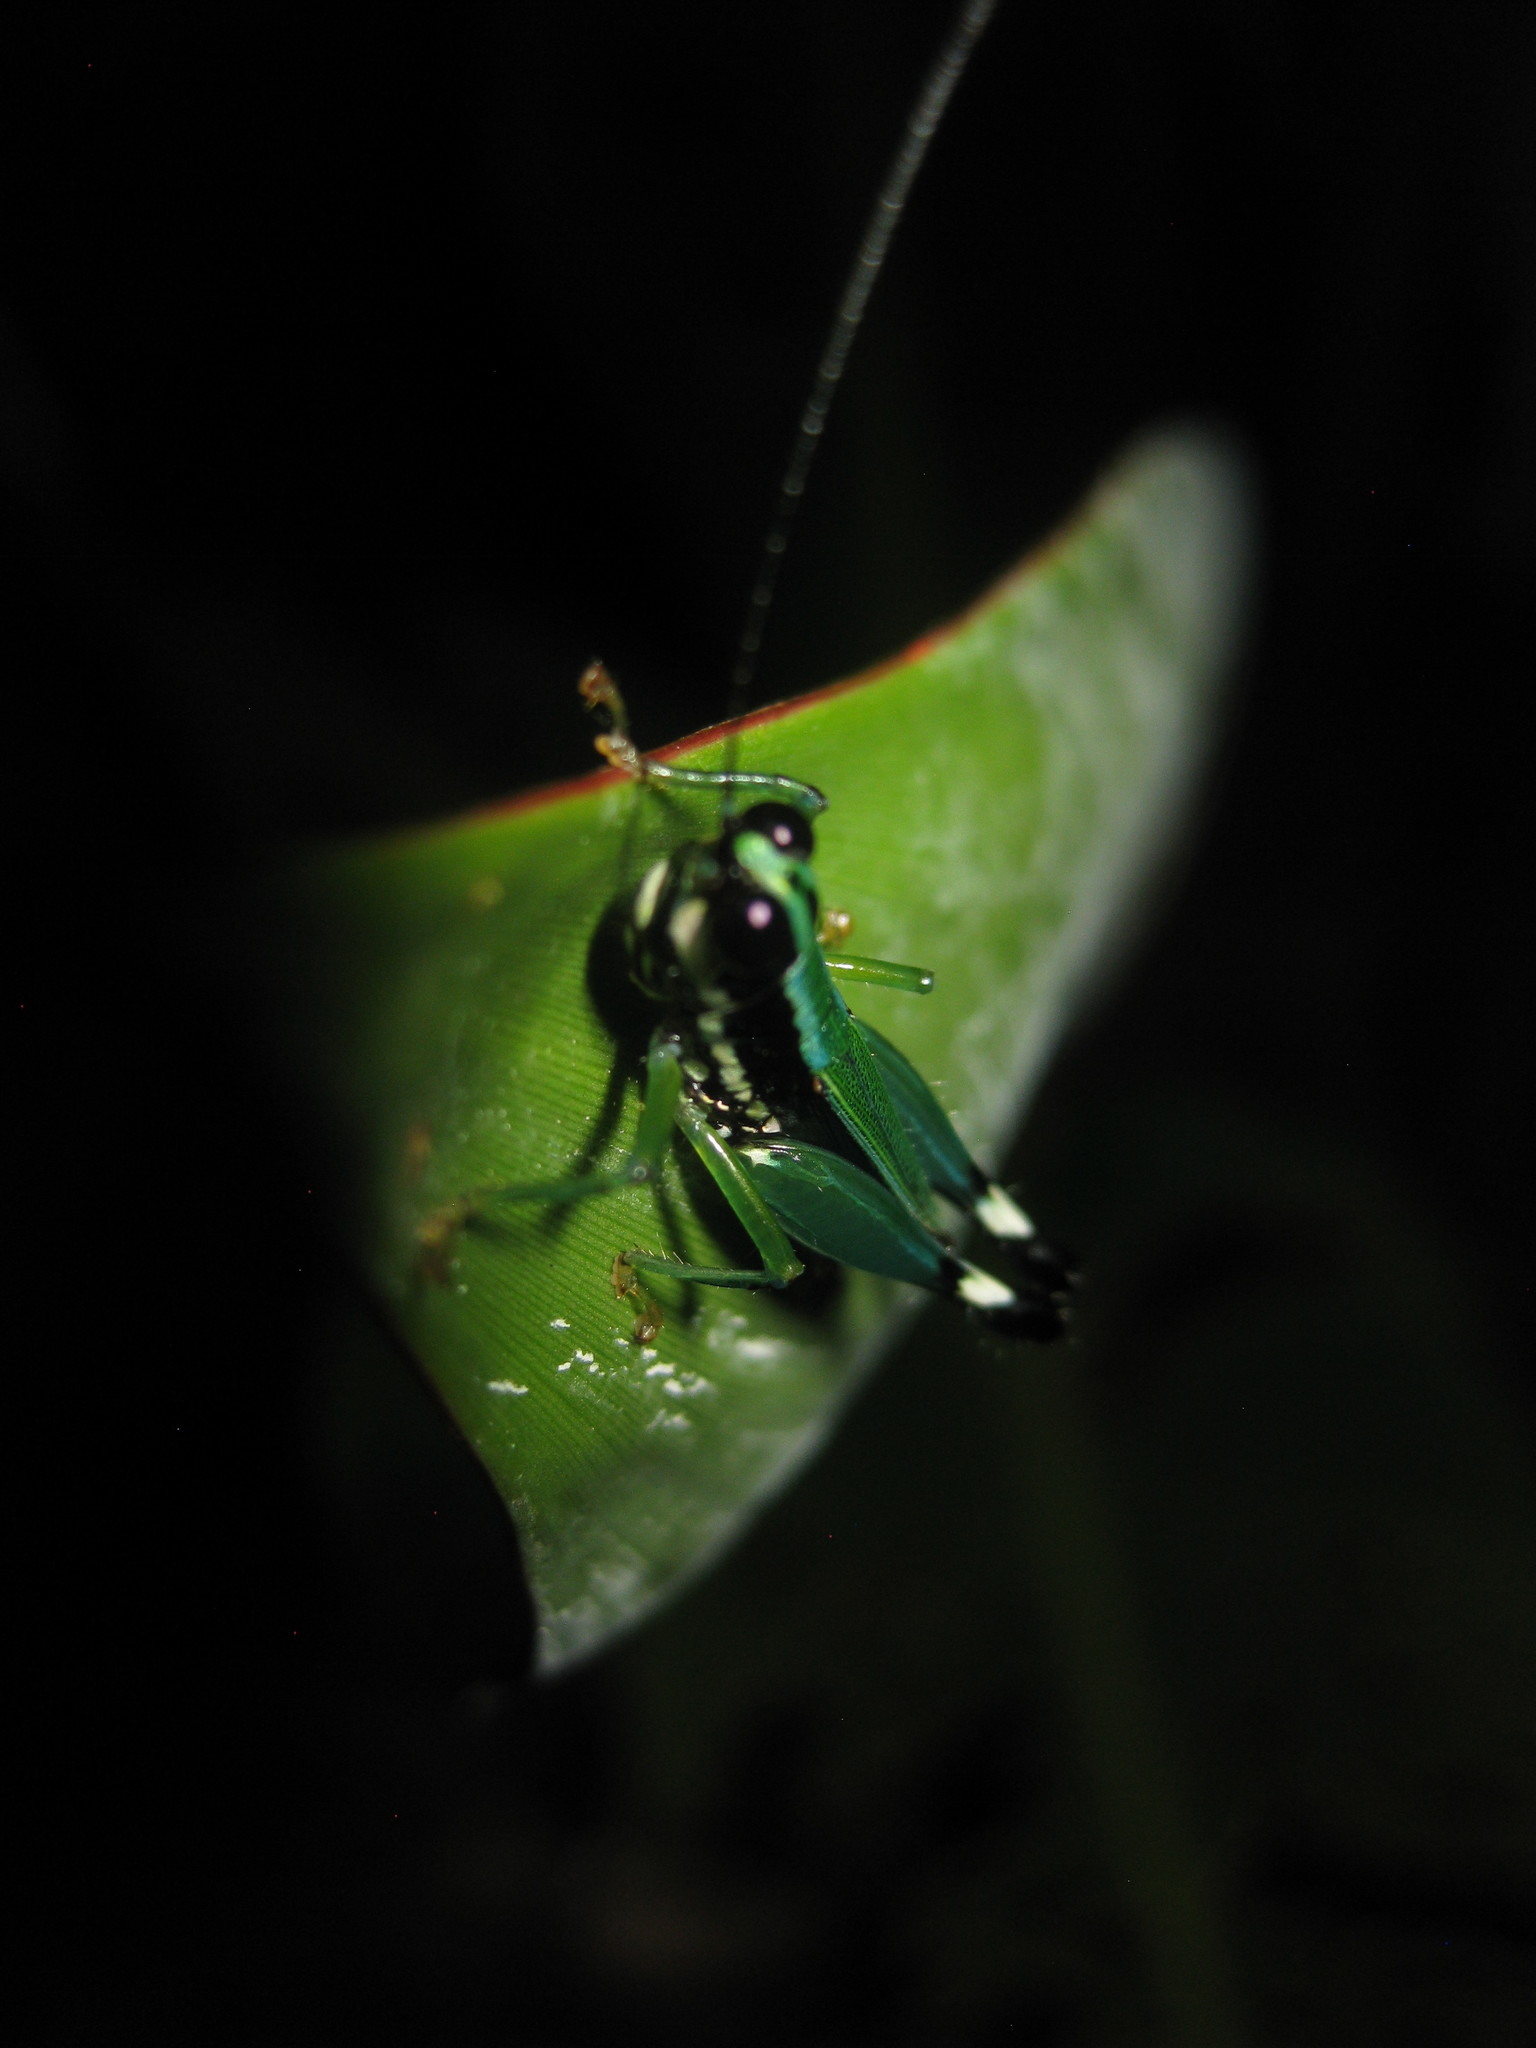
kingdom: Animalia
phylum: Arthropoda
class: Insecta
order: Orthoptera
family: Acrididae
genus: Nadiacris
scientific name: Nadiacris metallica
